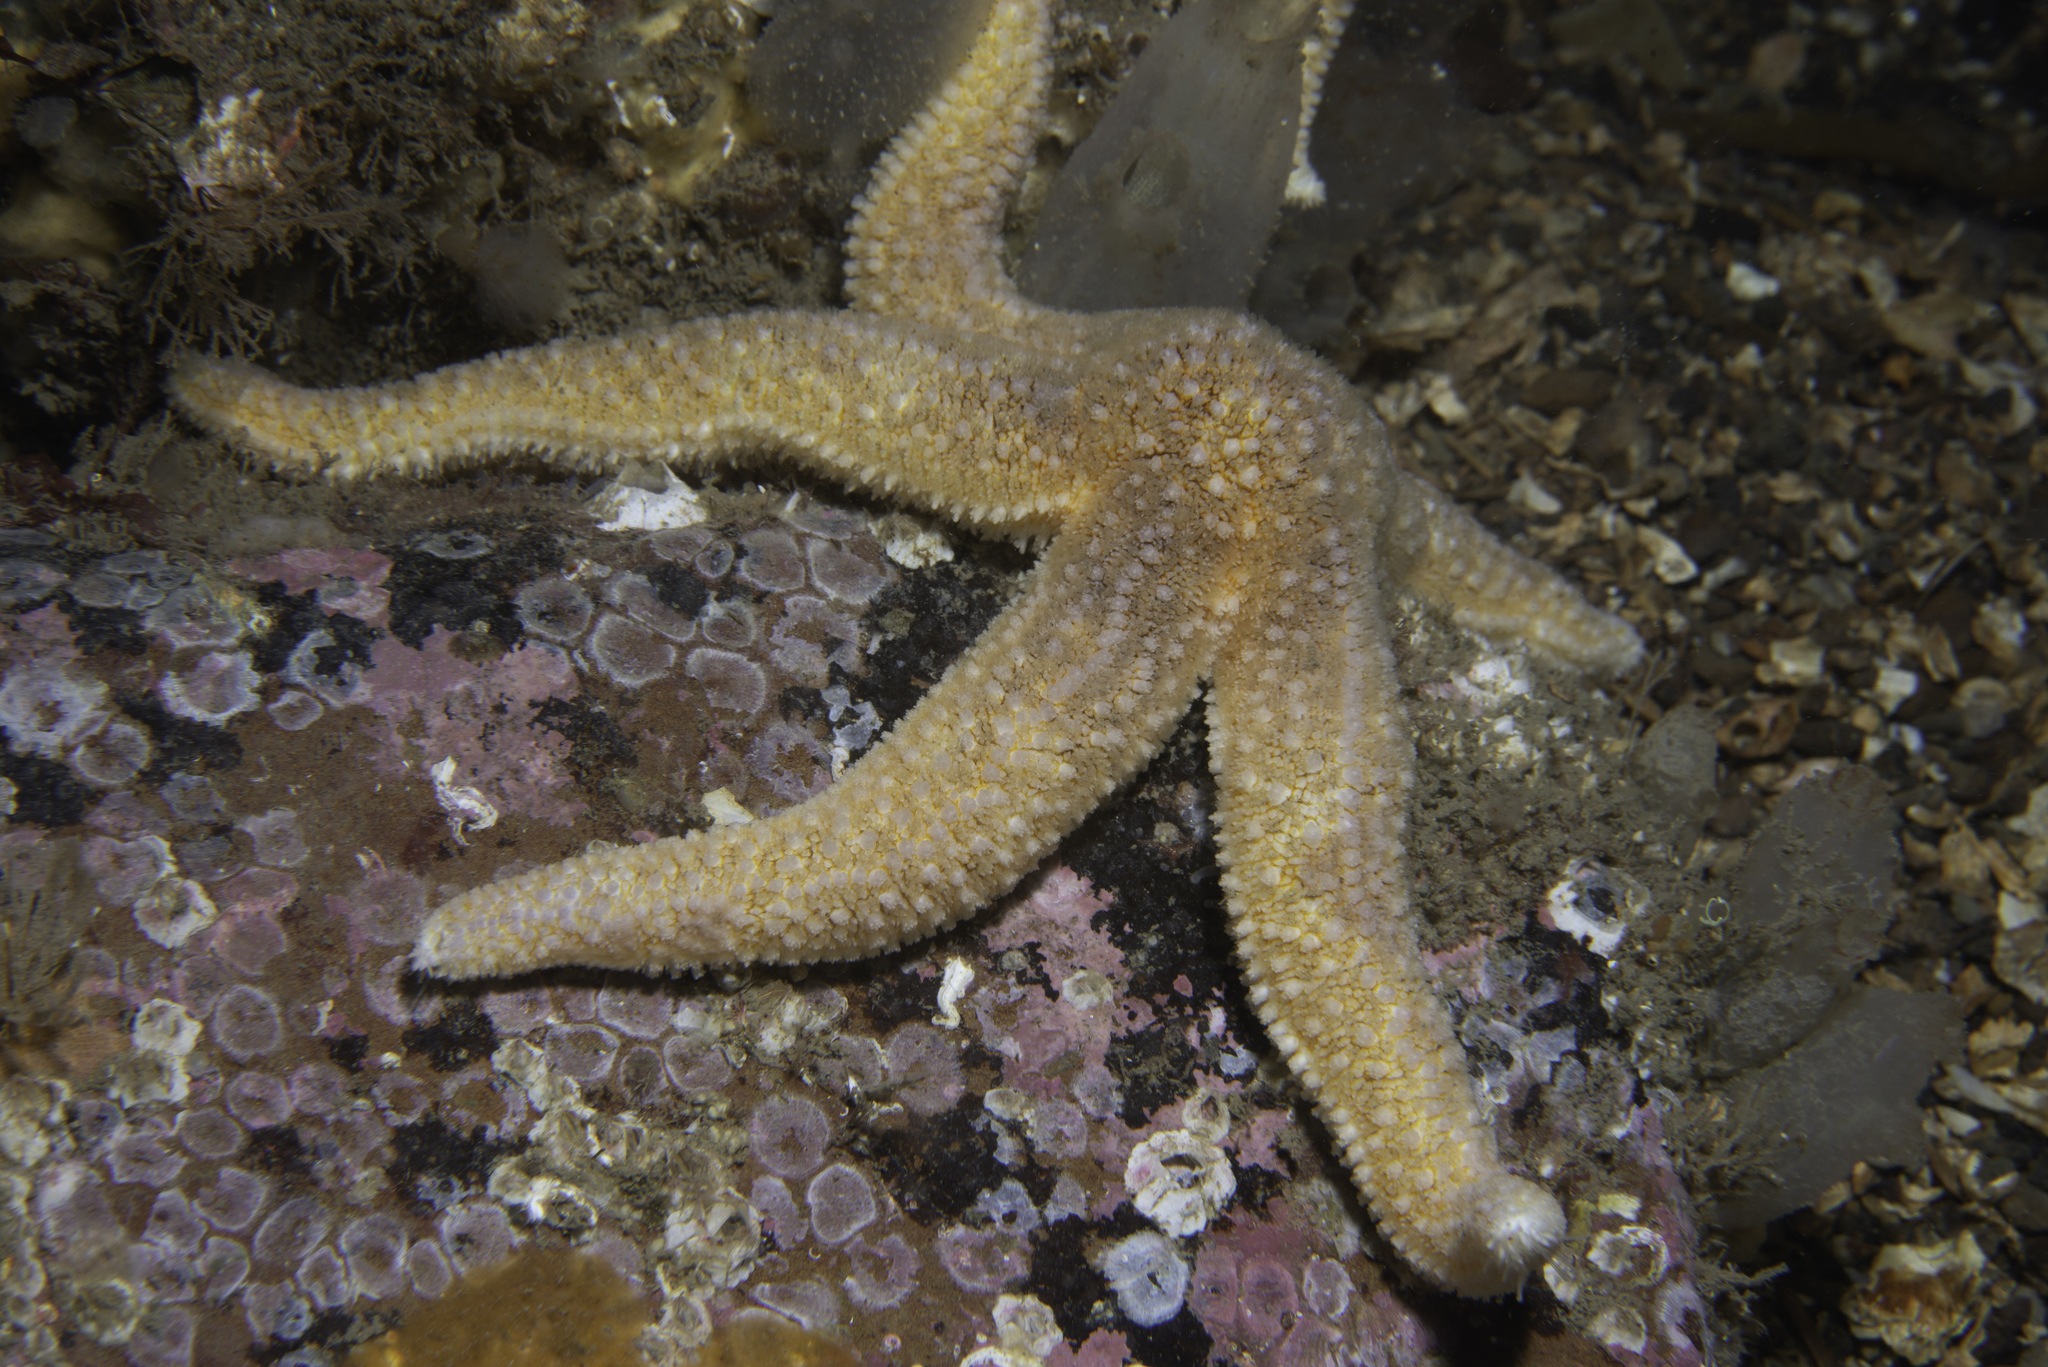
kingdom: Animalia
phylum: Echinodermata
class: Asteroidea
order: Forcipulatida
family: Asteriidae
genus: Asterias
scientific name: Asterias rubens
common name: Common starfish
